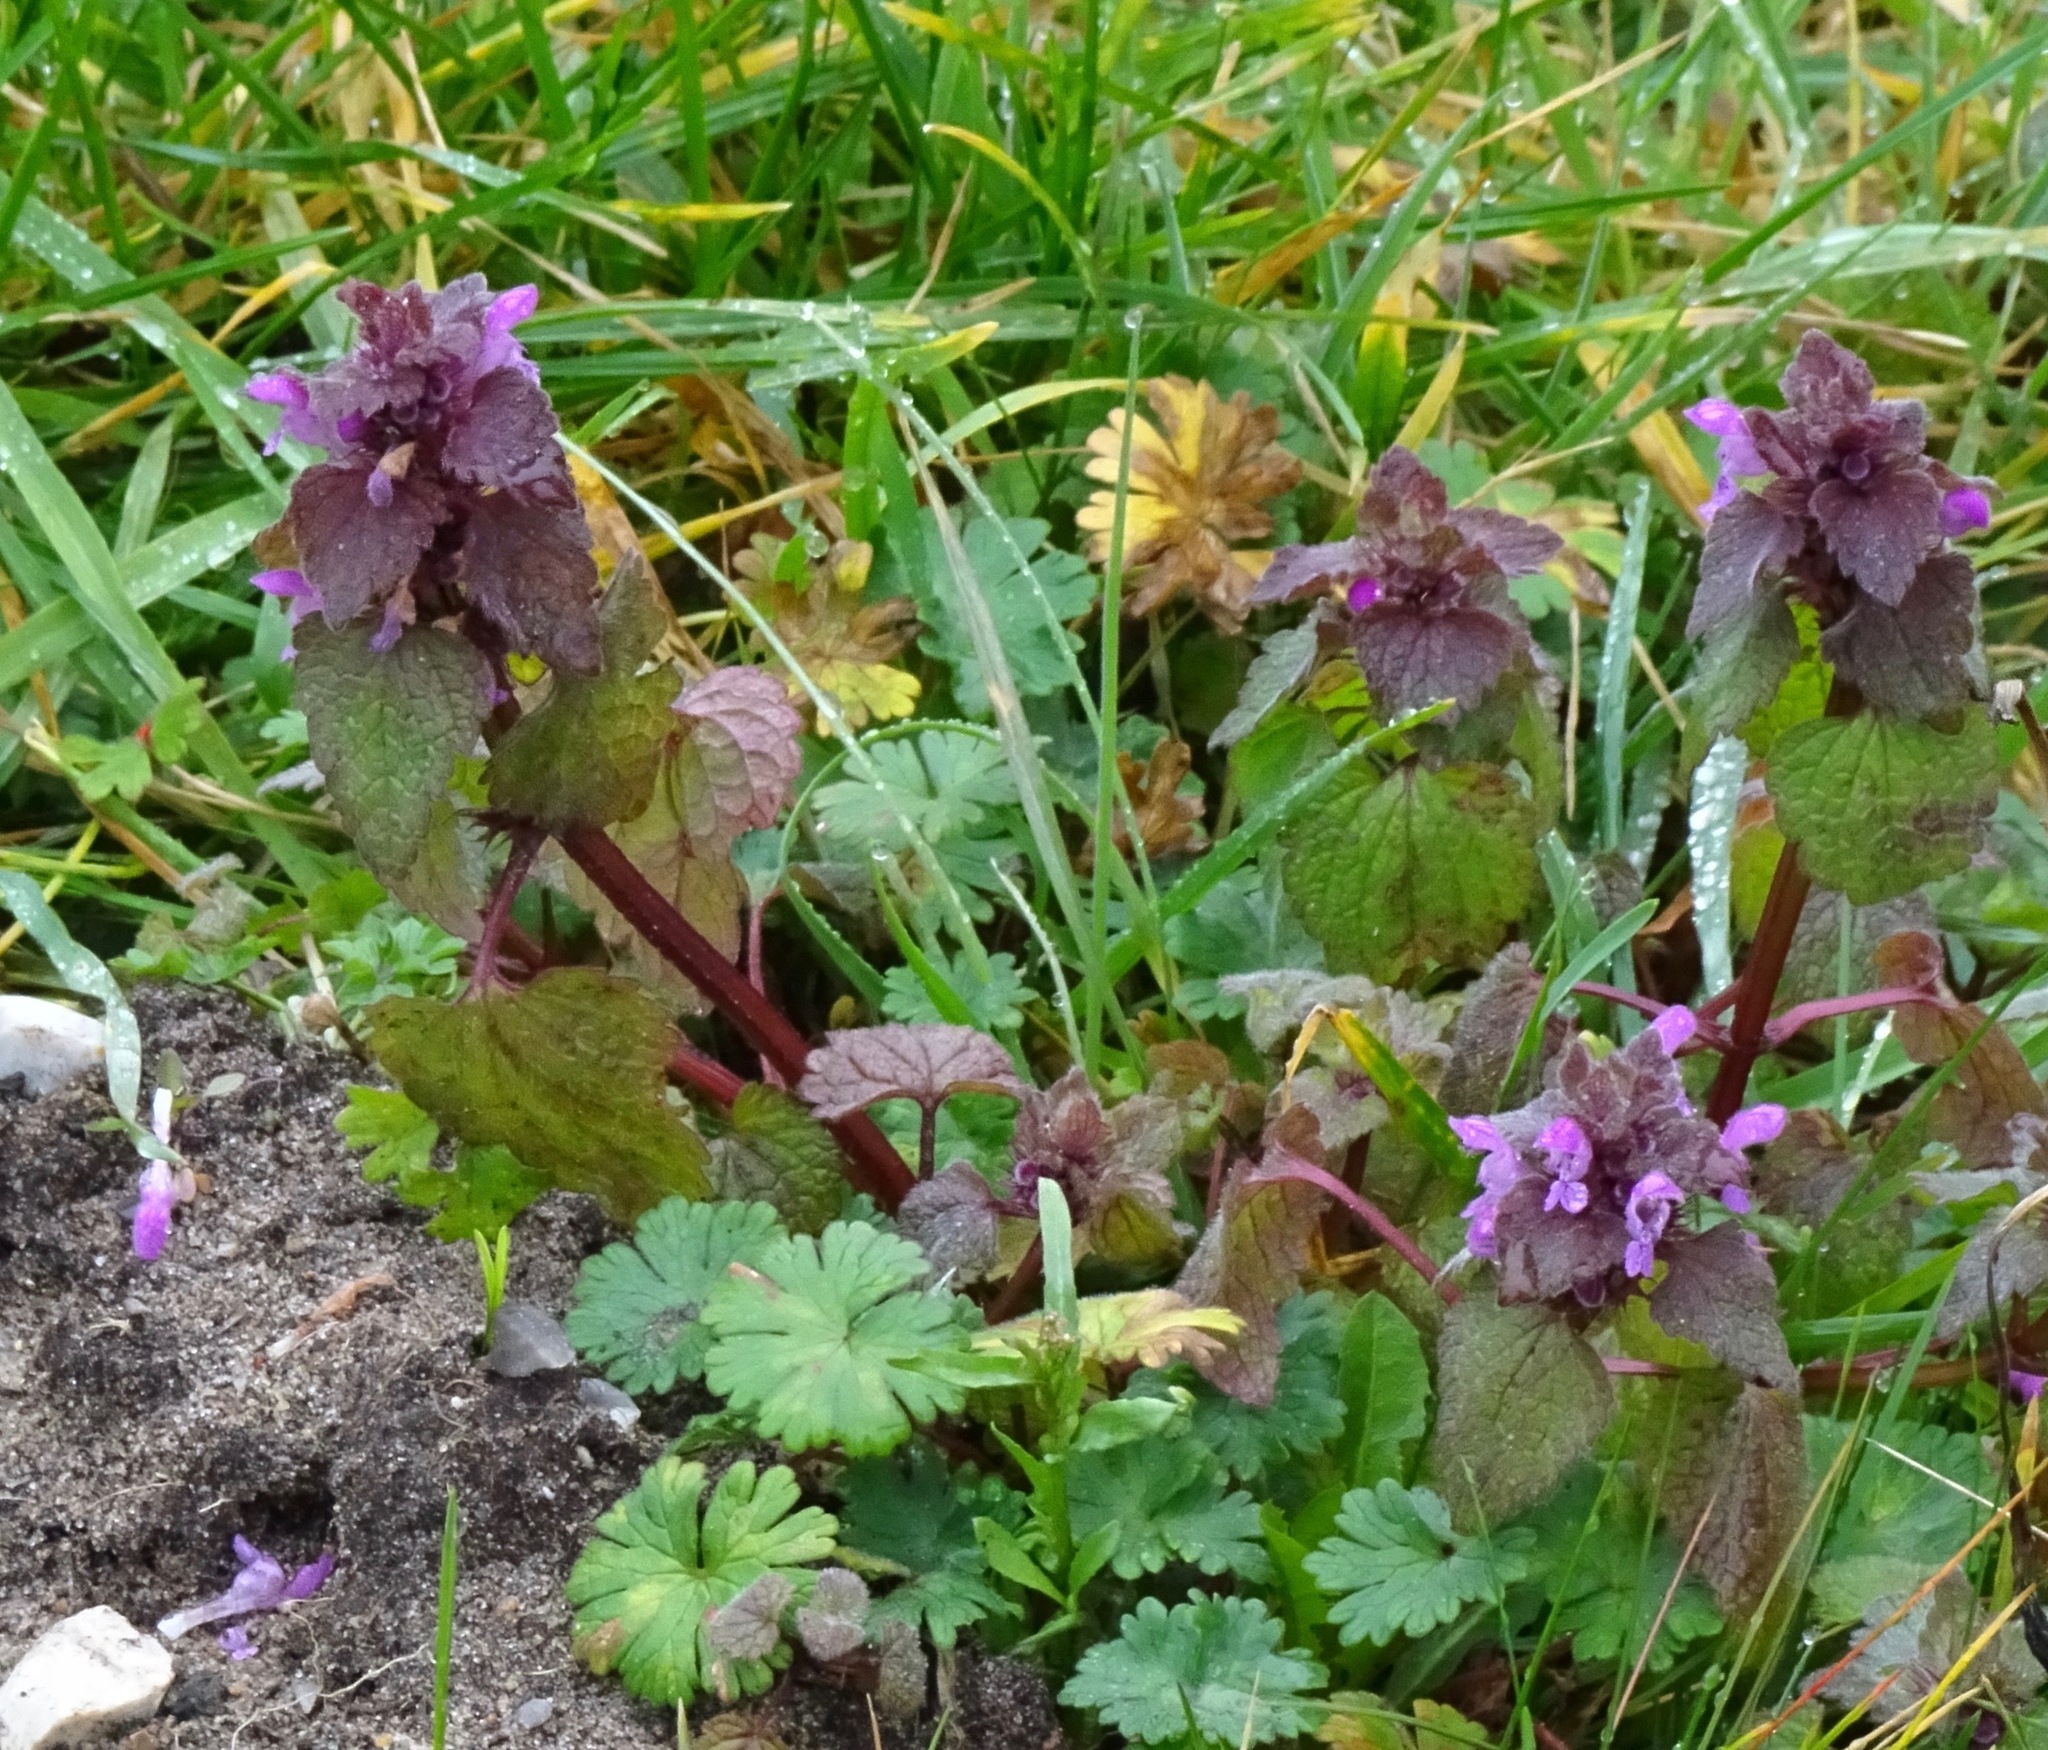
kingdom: Plantae
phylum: Tracheophyta
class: Magnoliopsida
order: Lamiales
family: Lamiaceae
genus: Lamium
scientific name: Lamium purpureum
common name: Red dead-nettle
